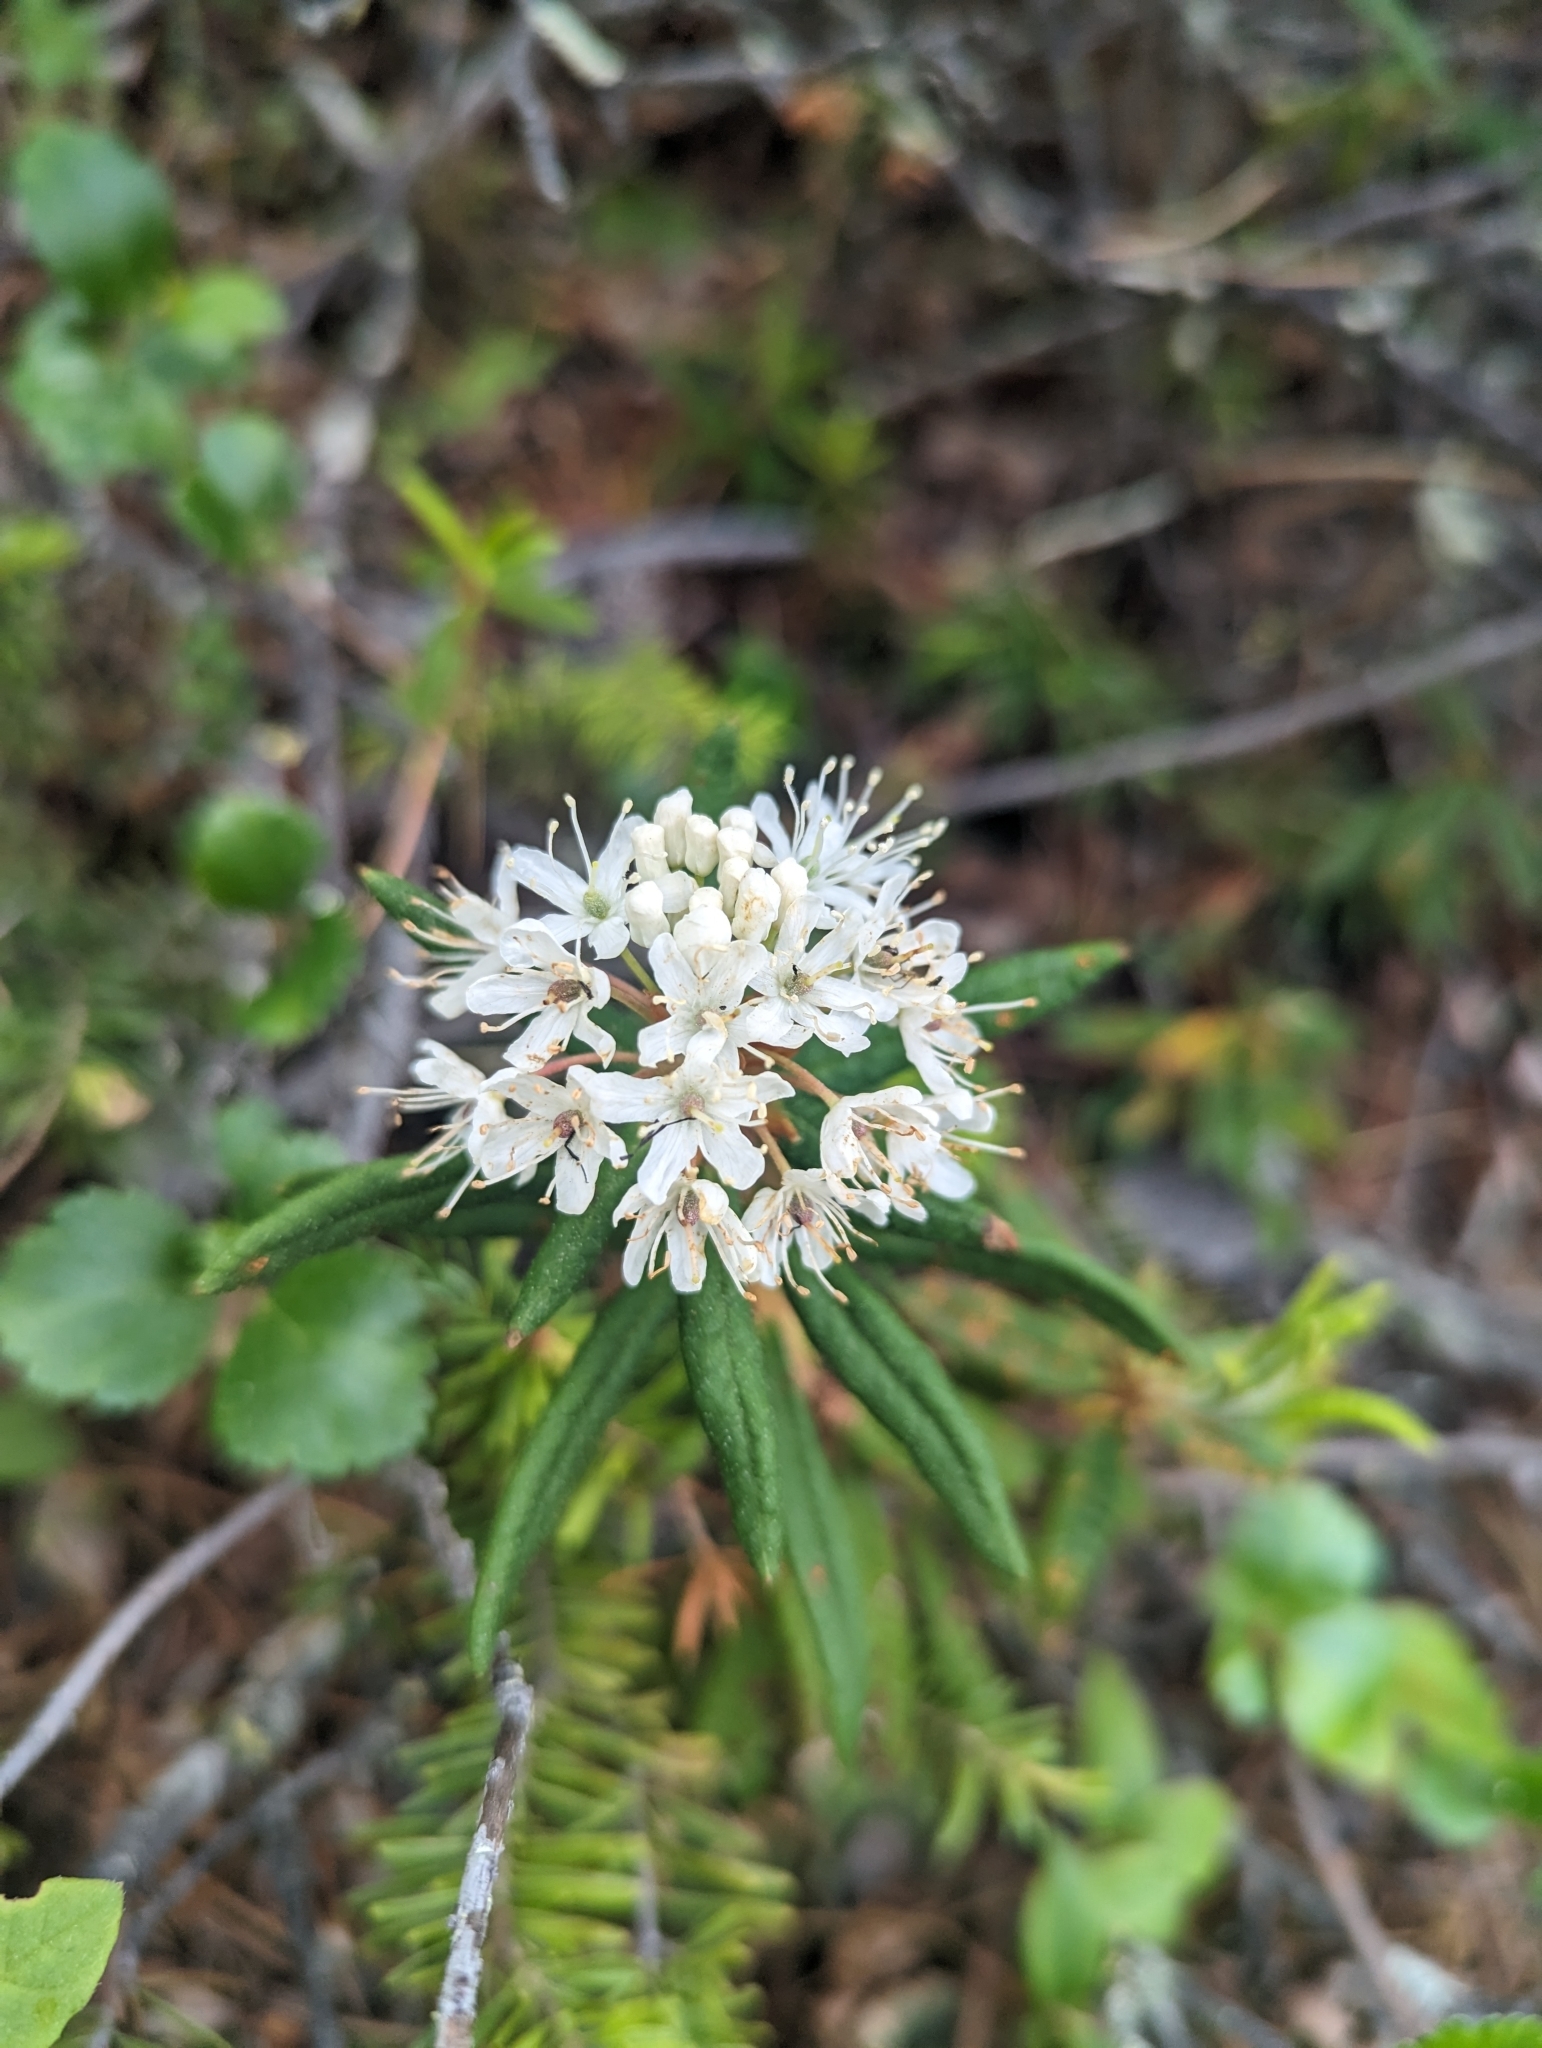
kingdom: Plantae
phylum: Tracheophyta
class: Magnoliopsida
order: Ericales
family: Ericaceae
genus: Rhododendron
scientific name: Rhododendron groenlandicum
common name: Bog labrador tea
